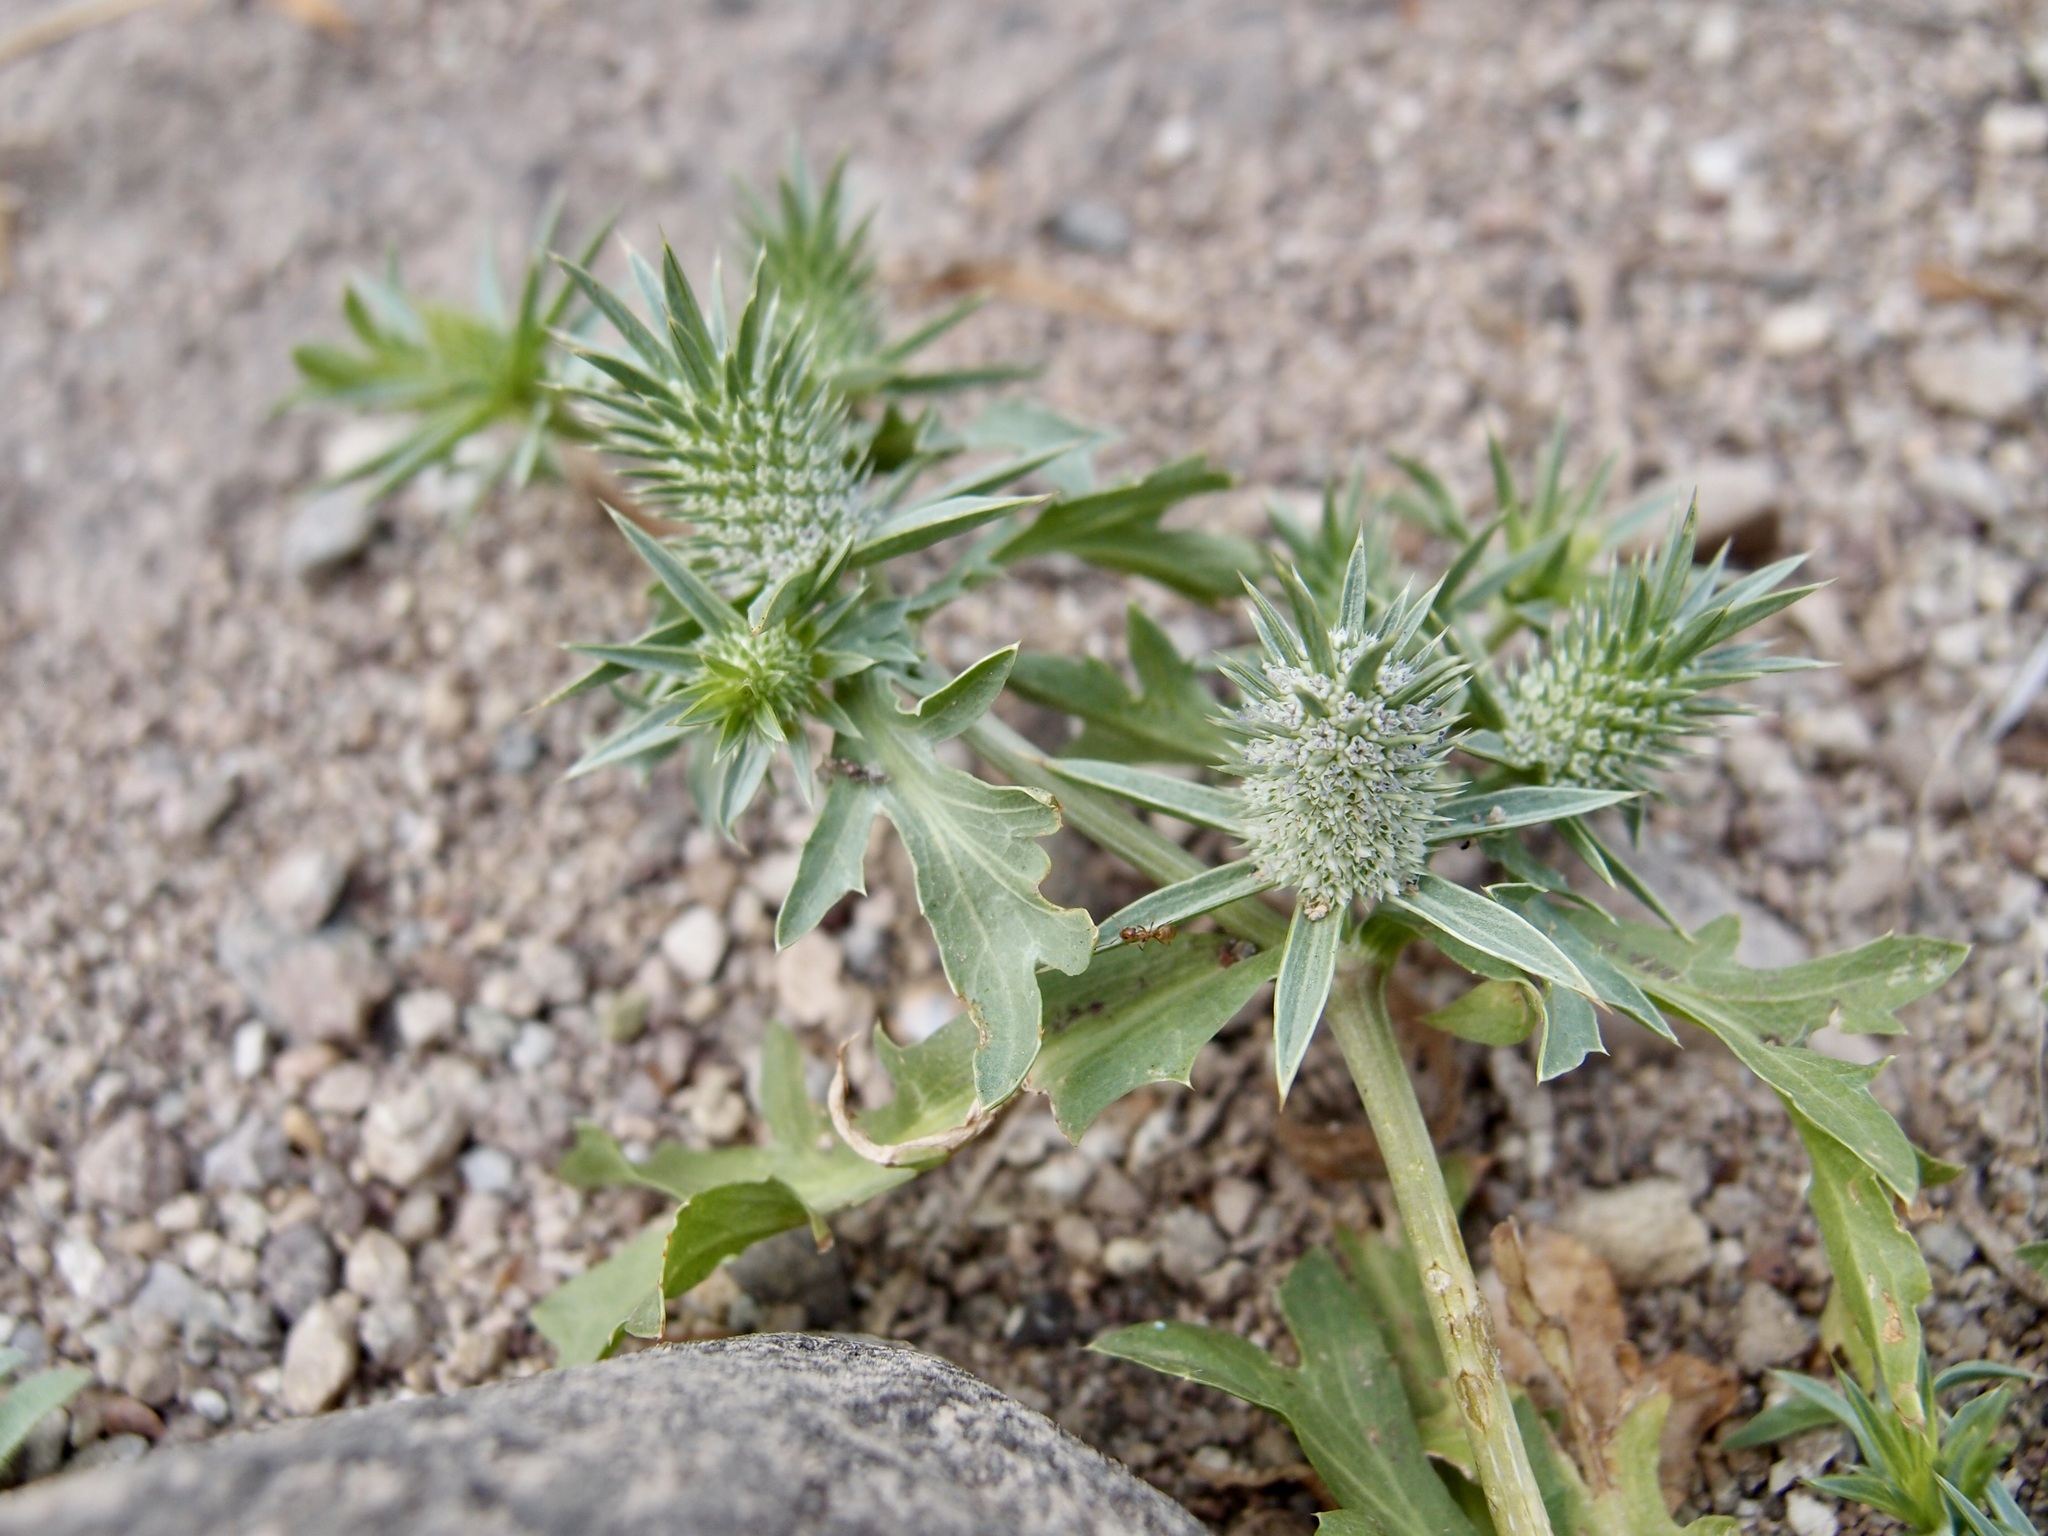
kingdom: Plantae
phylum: Tracheophyta
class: Magnoliopsida
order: Apiales
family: Apiaceae
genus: Eryngium
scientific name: Eryngium nasturtiifolium
